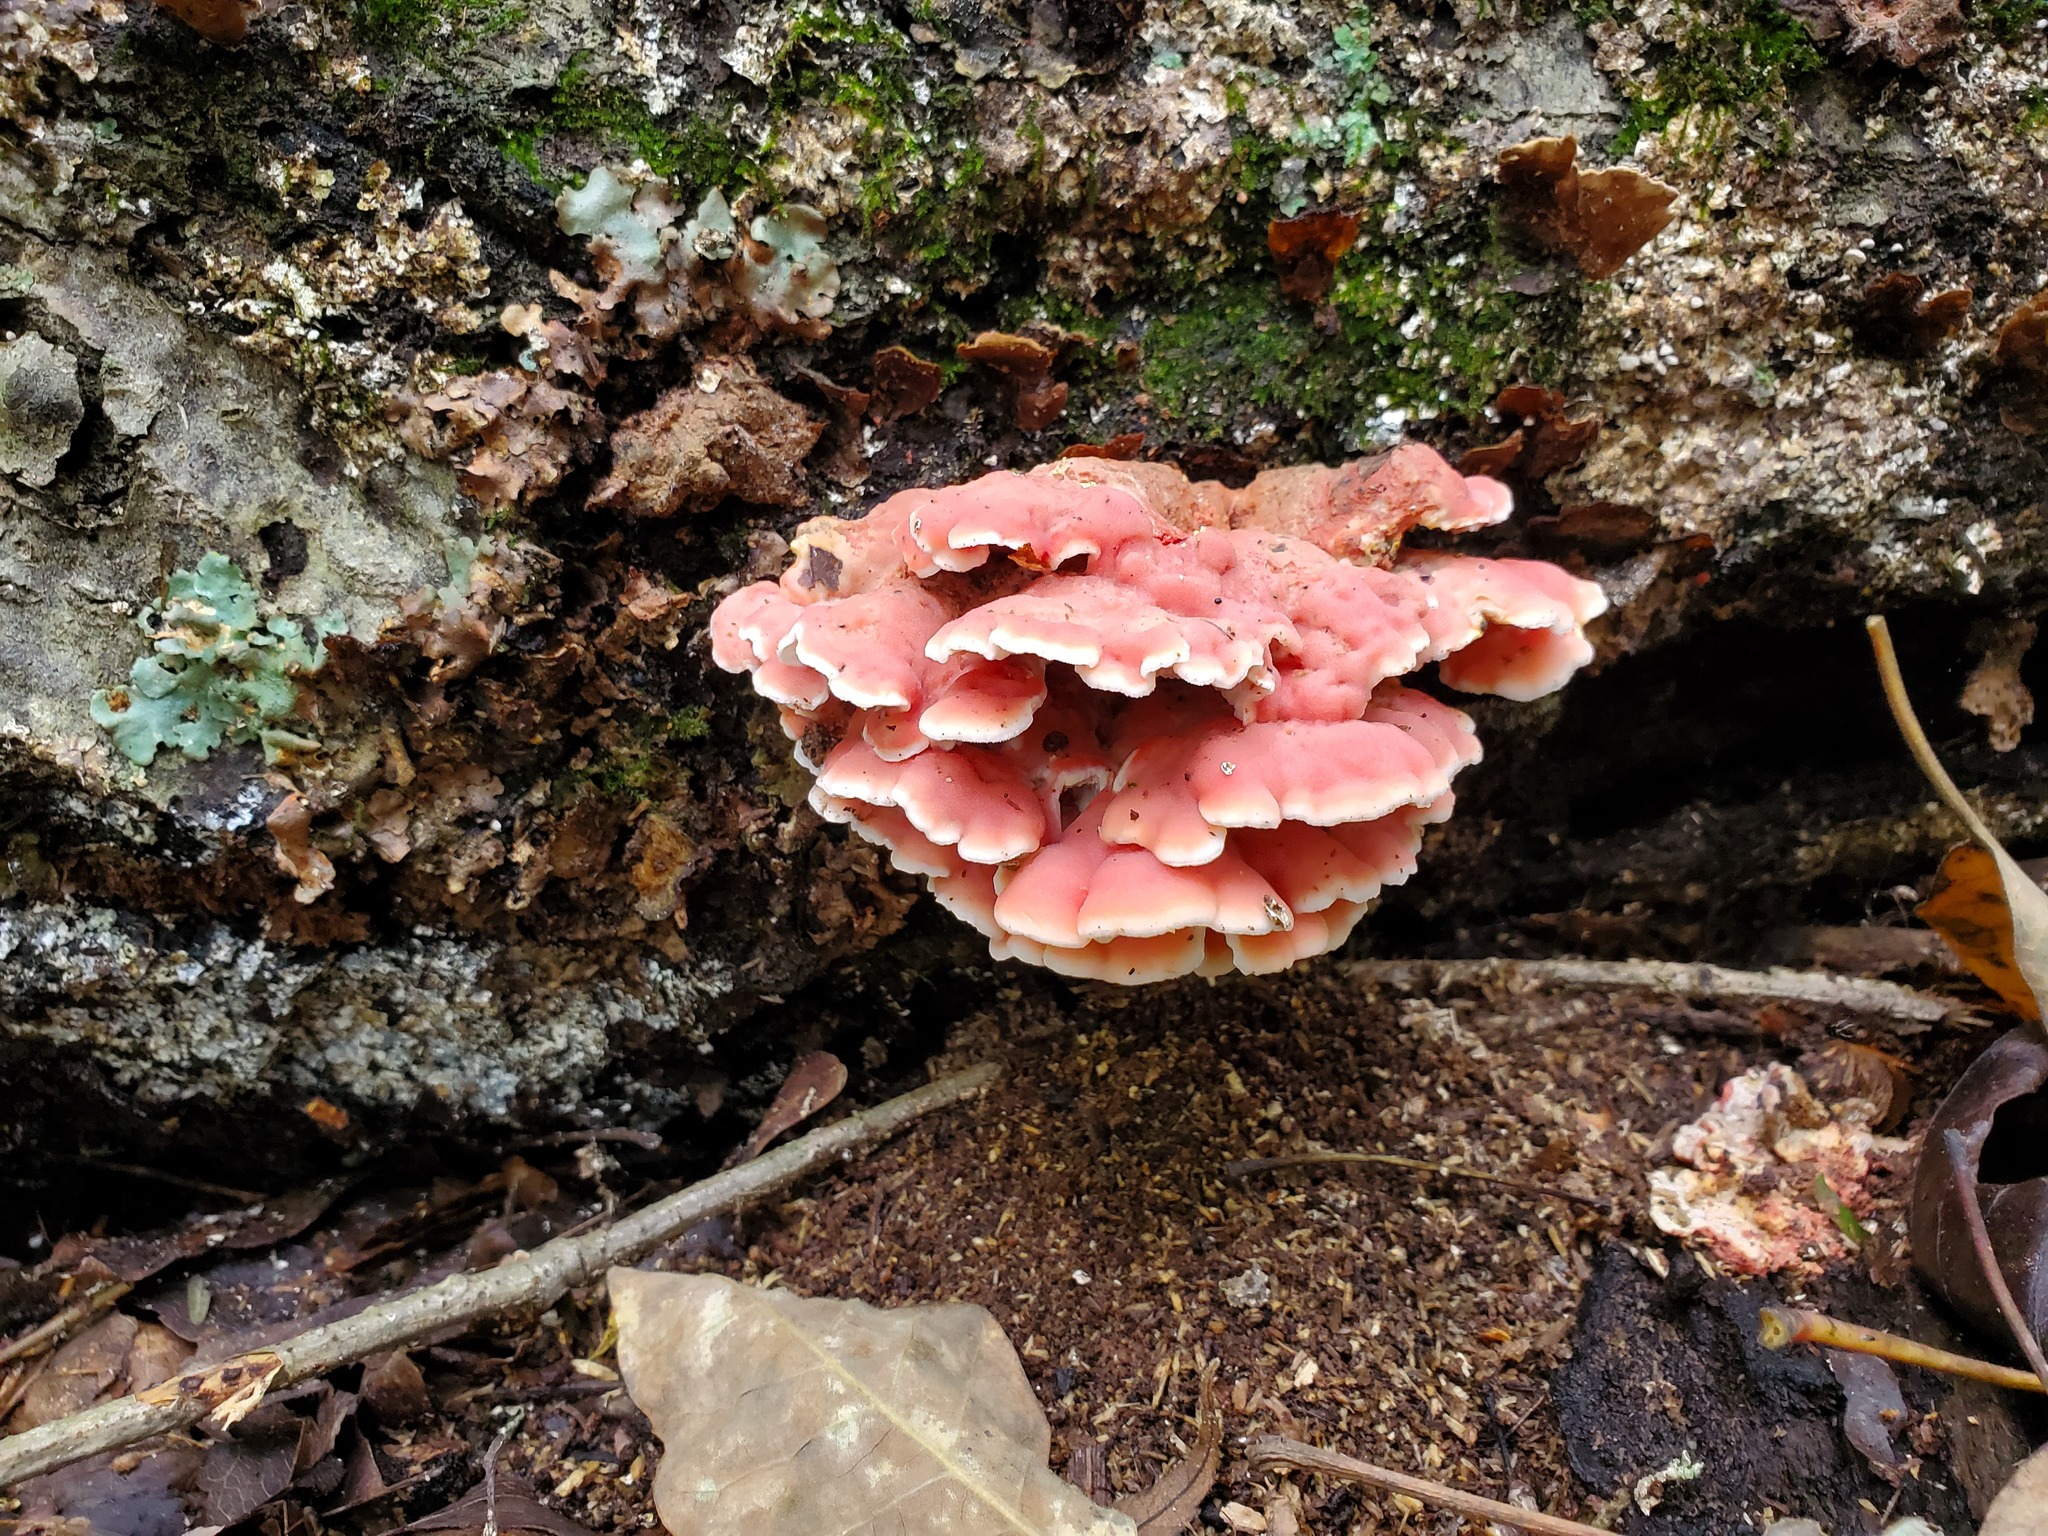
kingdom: Fungi
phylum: Basidiomycota
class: Agaricomycetes
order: Polyporales
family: Irpicaceae
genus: Byssomerulius
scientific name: Byssomerulius incarnatus
